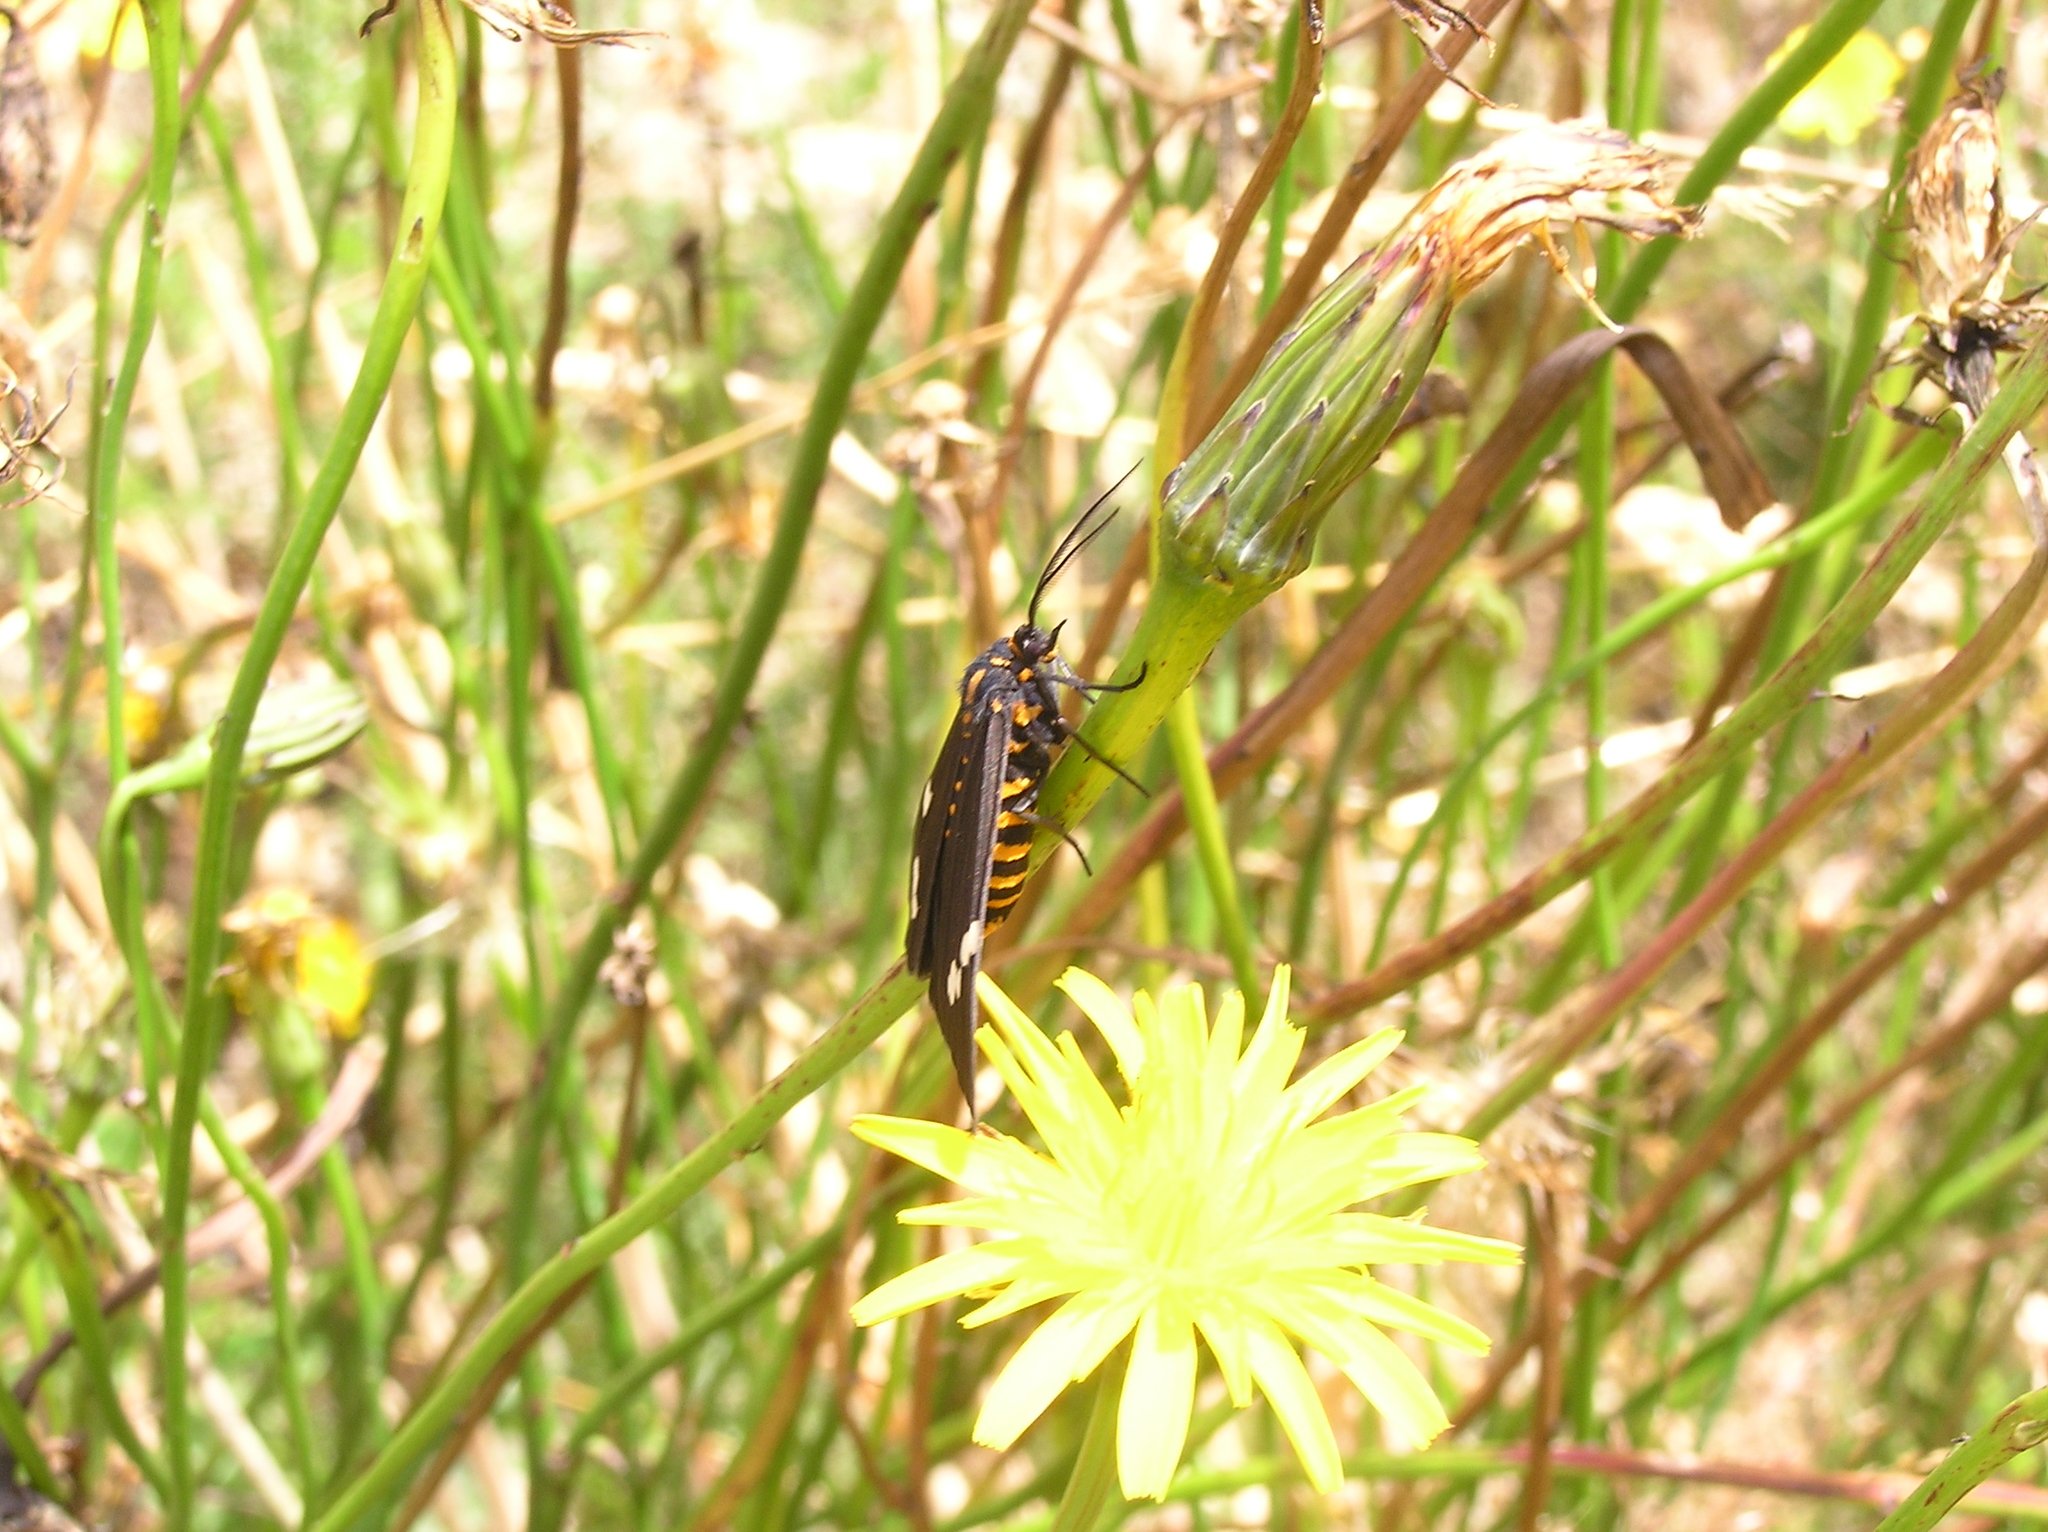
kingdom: Animalia
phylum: Arthropoda
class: Insecta
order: Lepidoptera
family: Erebidae
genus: Nyctemera
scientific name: Nyctemera annulatum
